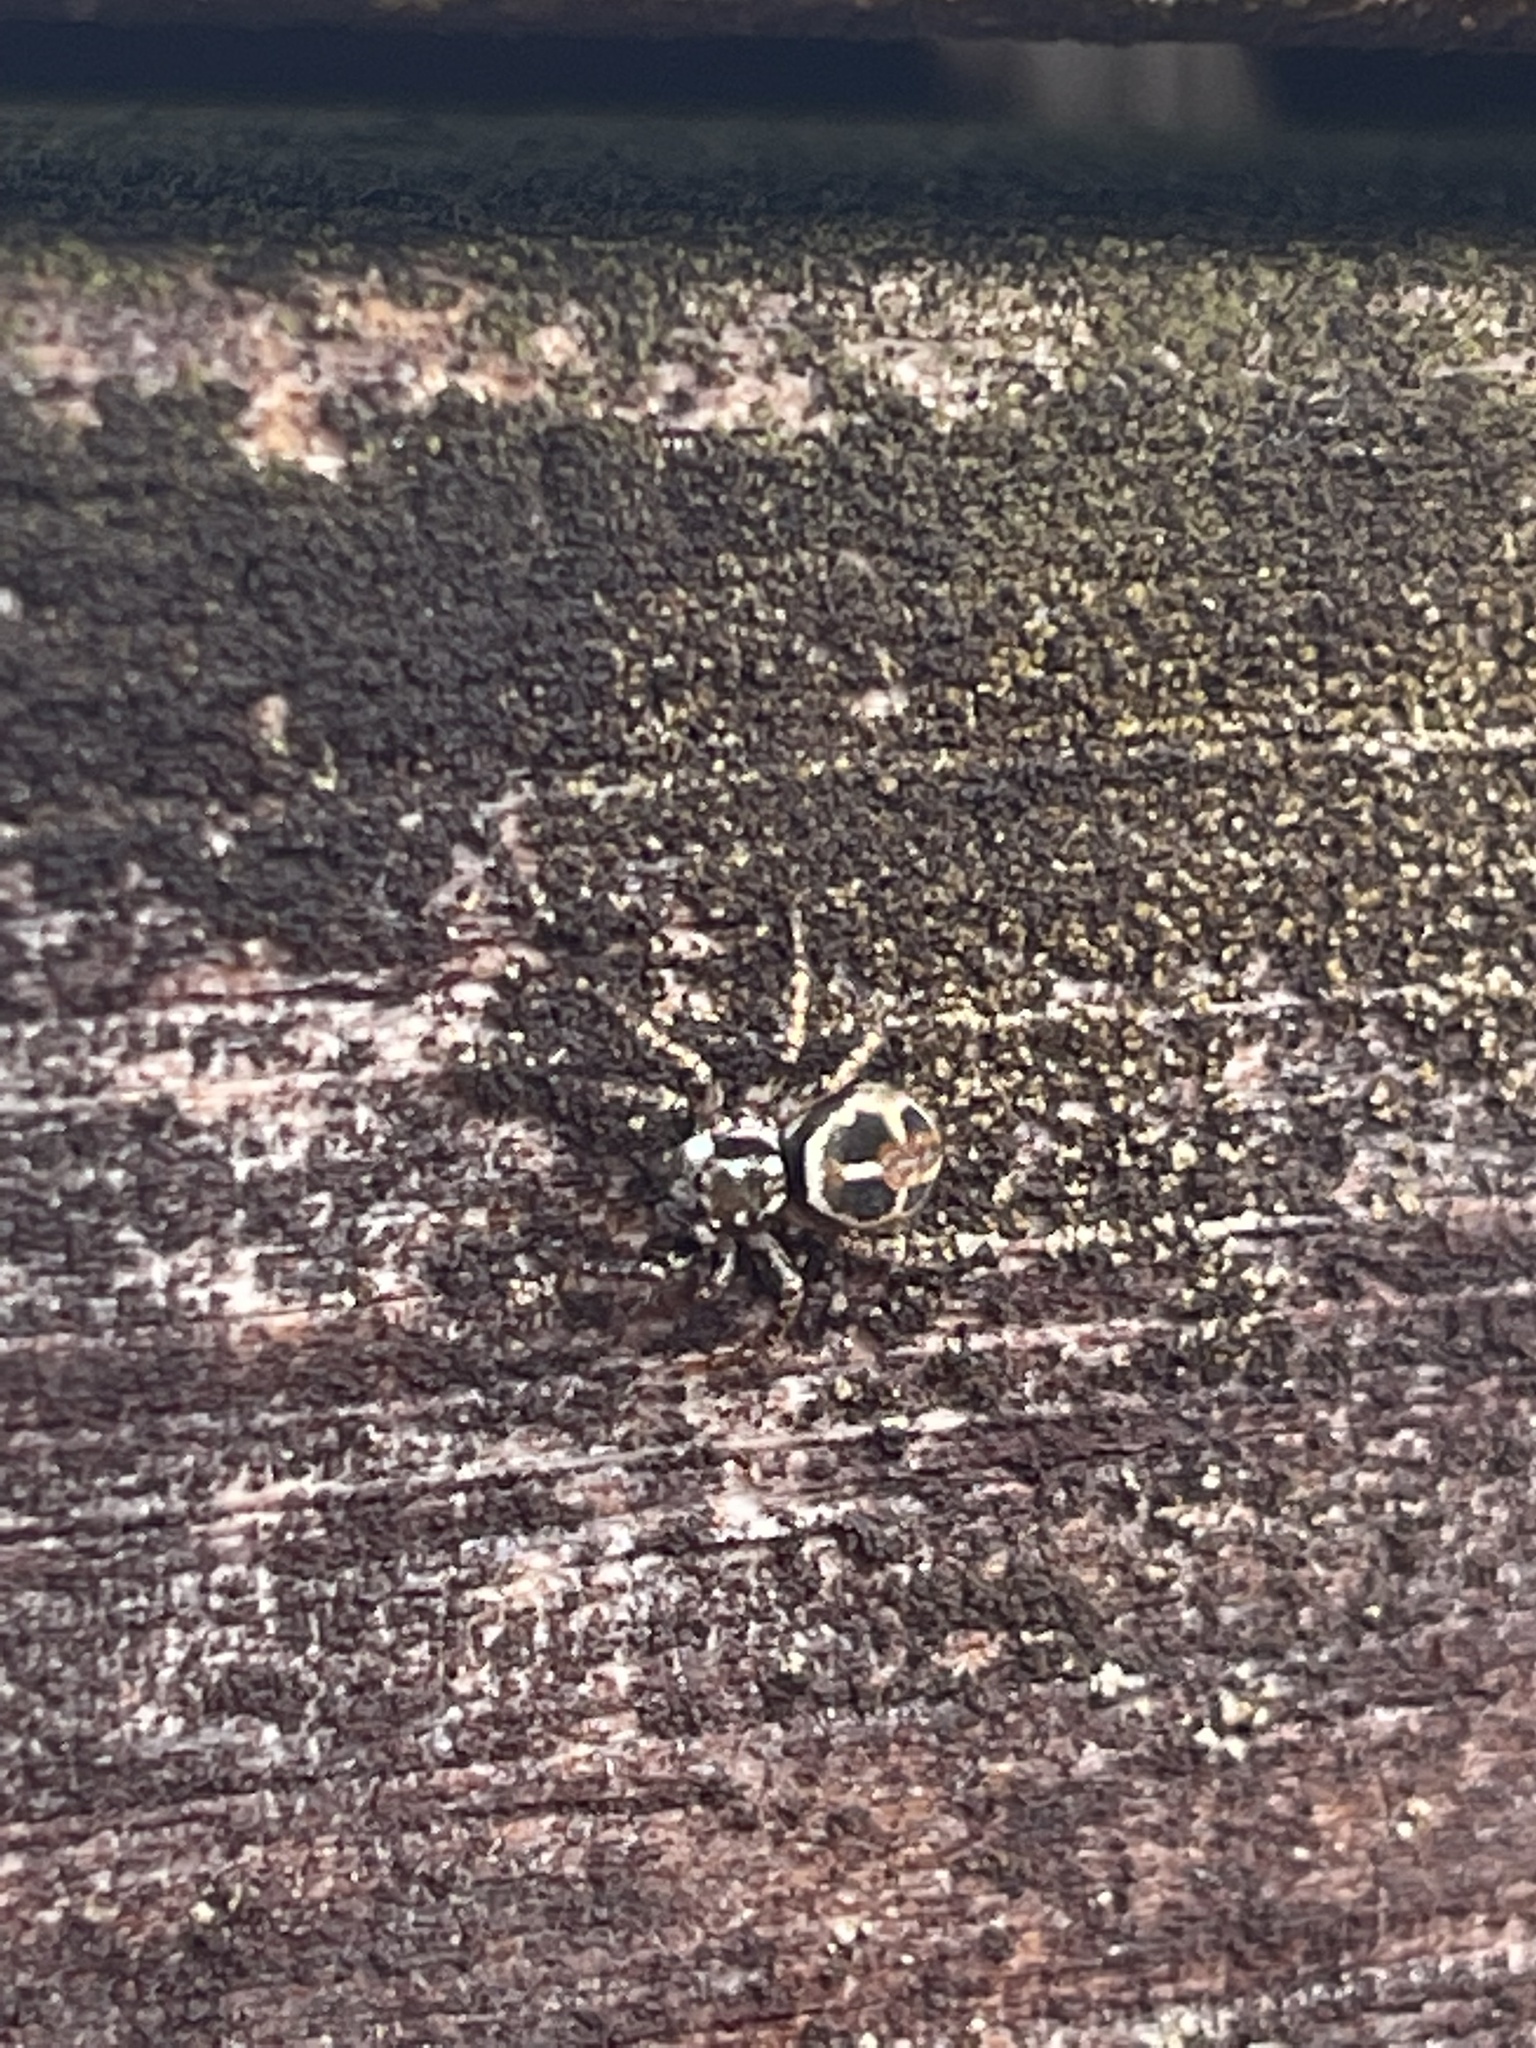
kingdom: Animalia
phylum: Arthropoda
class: Arachnida
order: Araneae
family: Salticidae
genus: Anasaitis
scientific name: Anasaitis canosa
